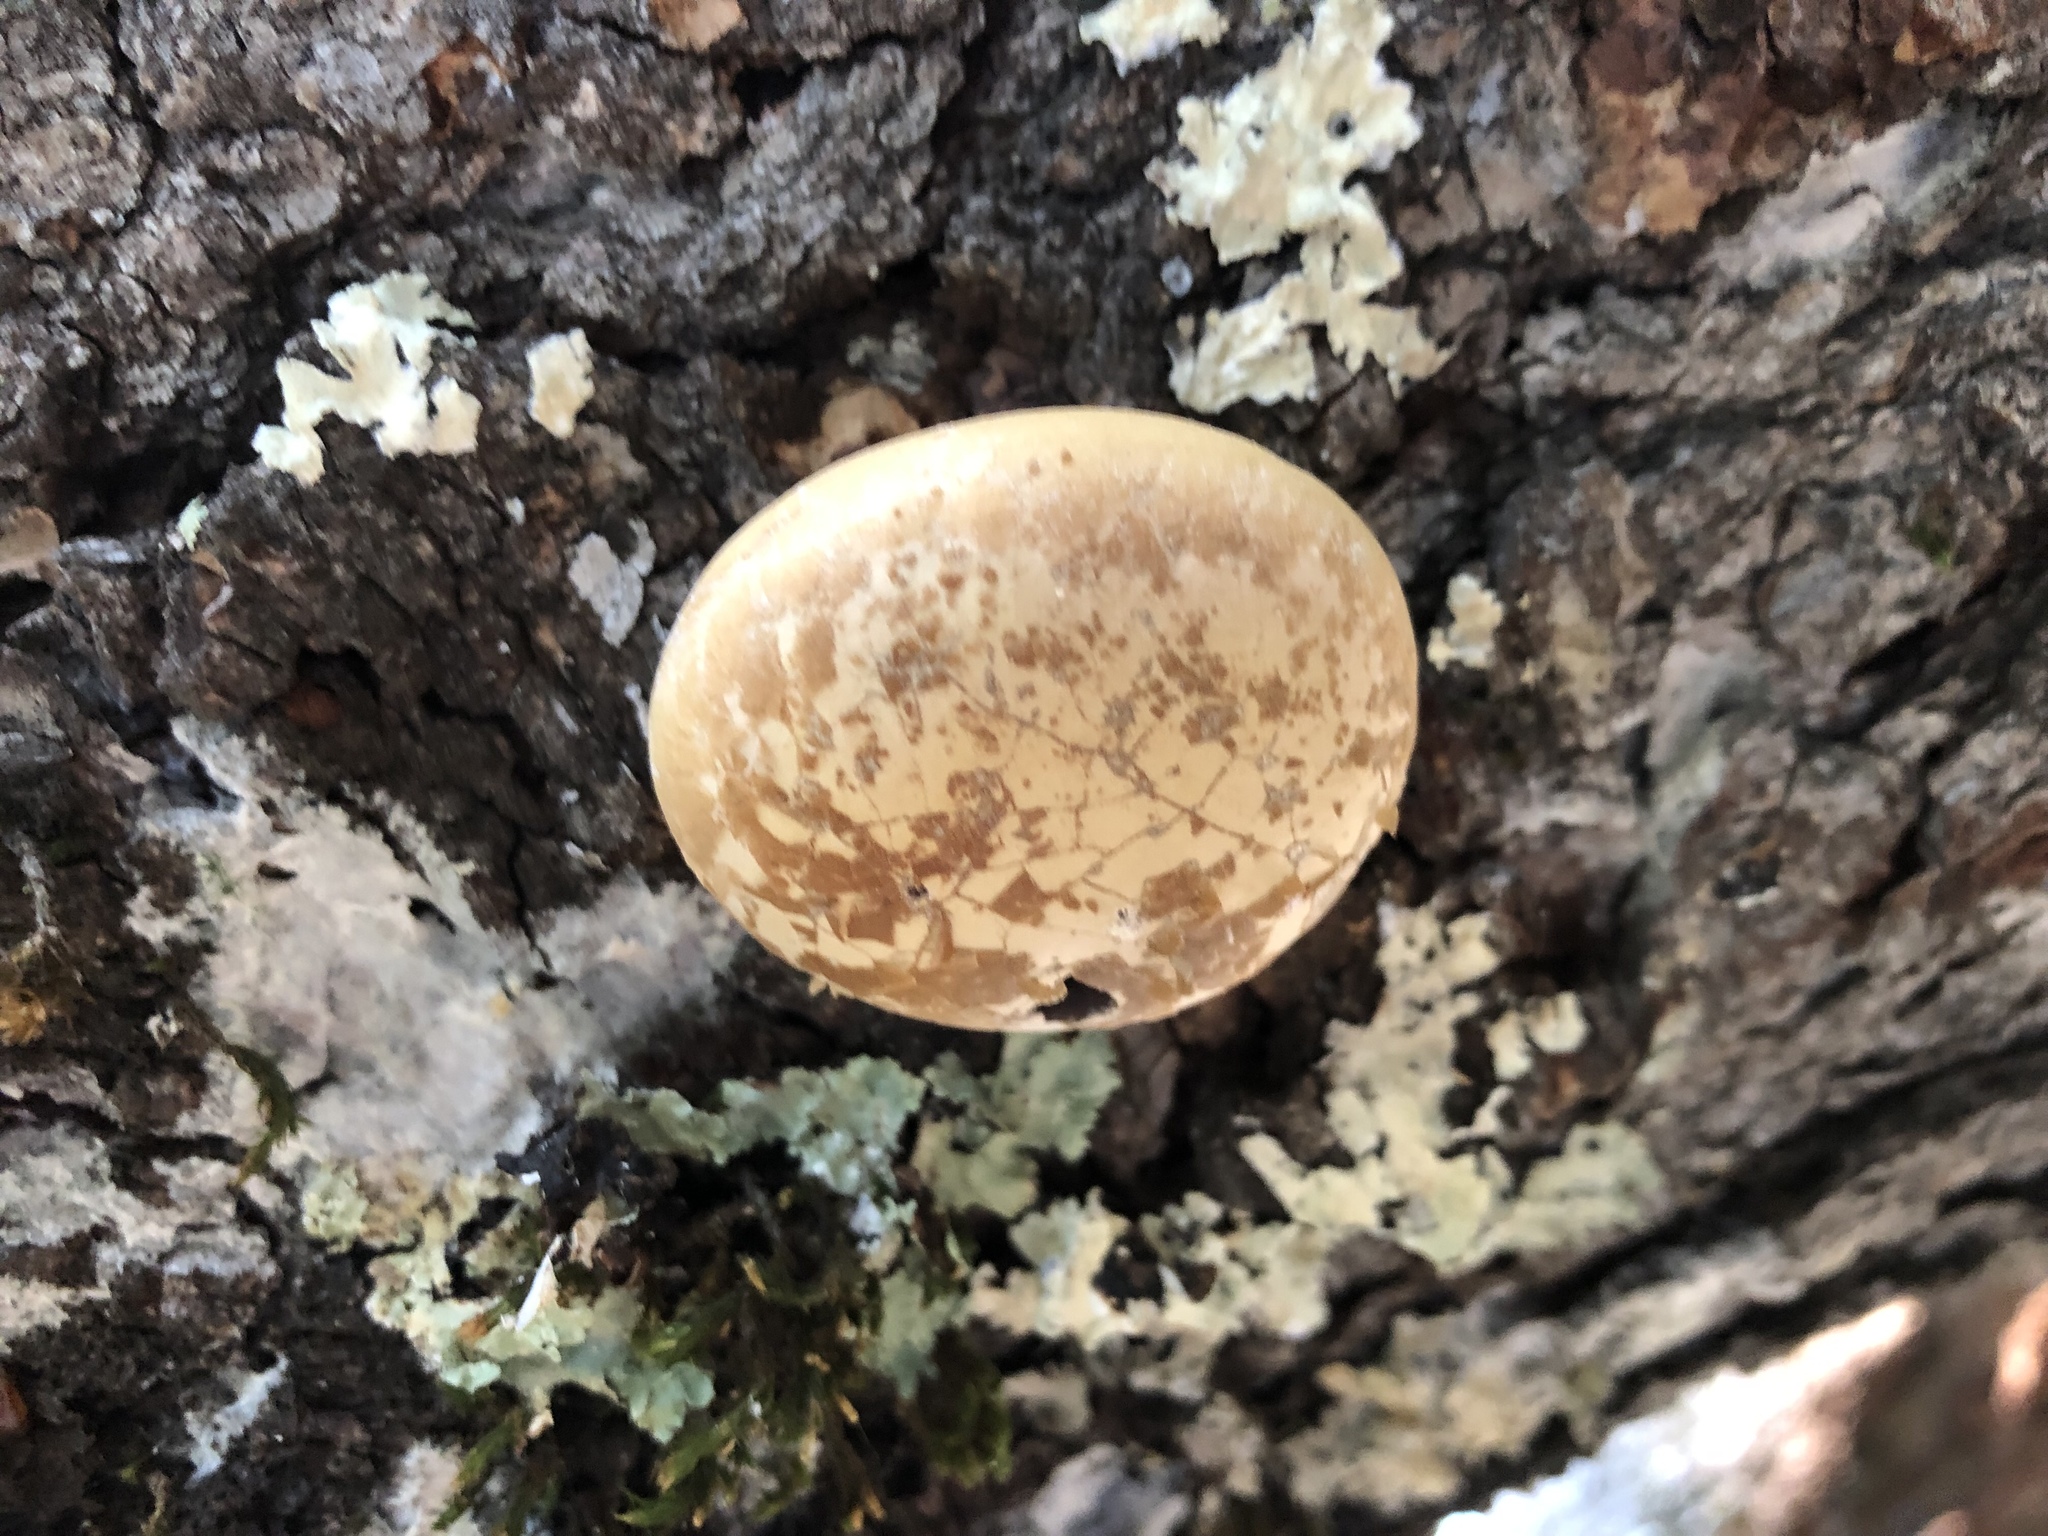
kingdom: Fungi
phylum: Basidiomycota
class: Agaricomycetes
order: Polyporales
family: Polyporaceae
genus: Cryptoporus
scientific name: Cryptoporus volvatus
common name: Veiled polypore
